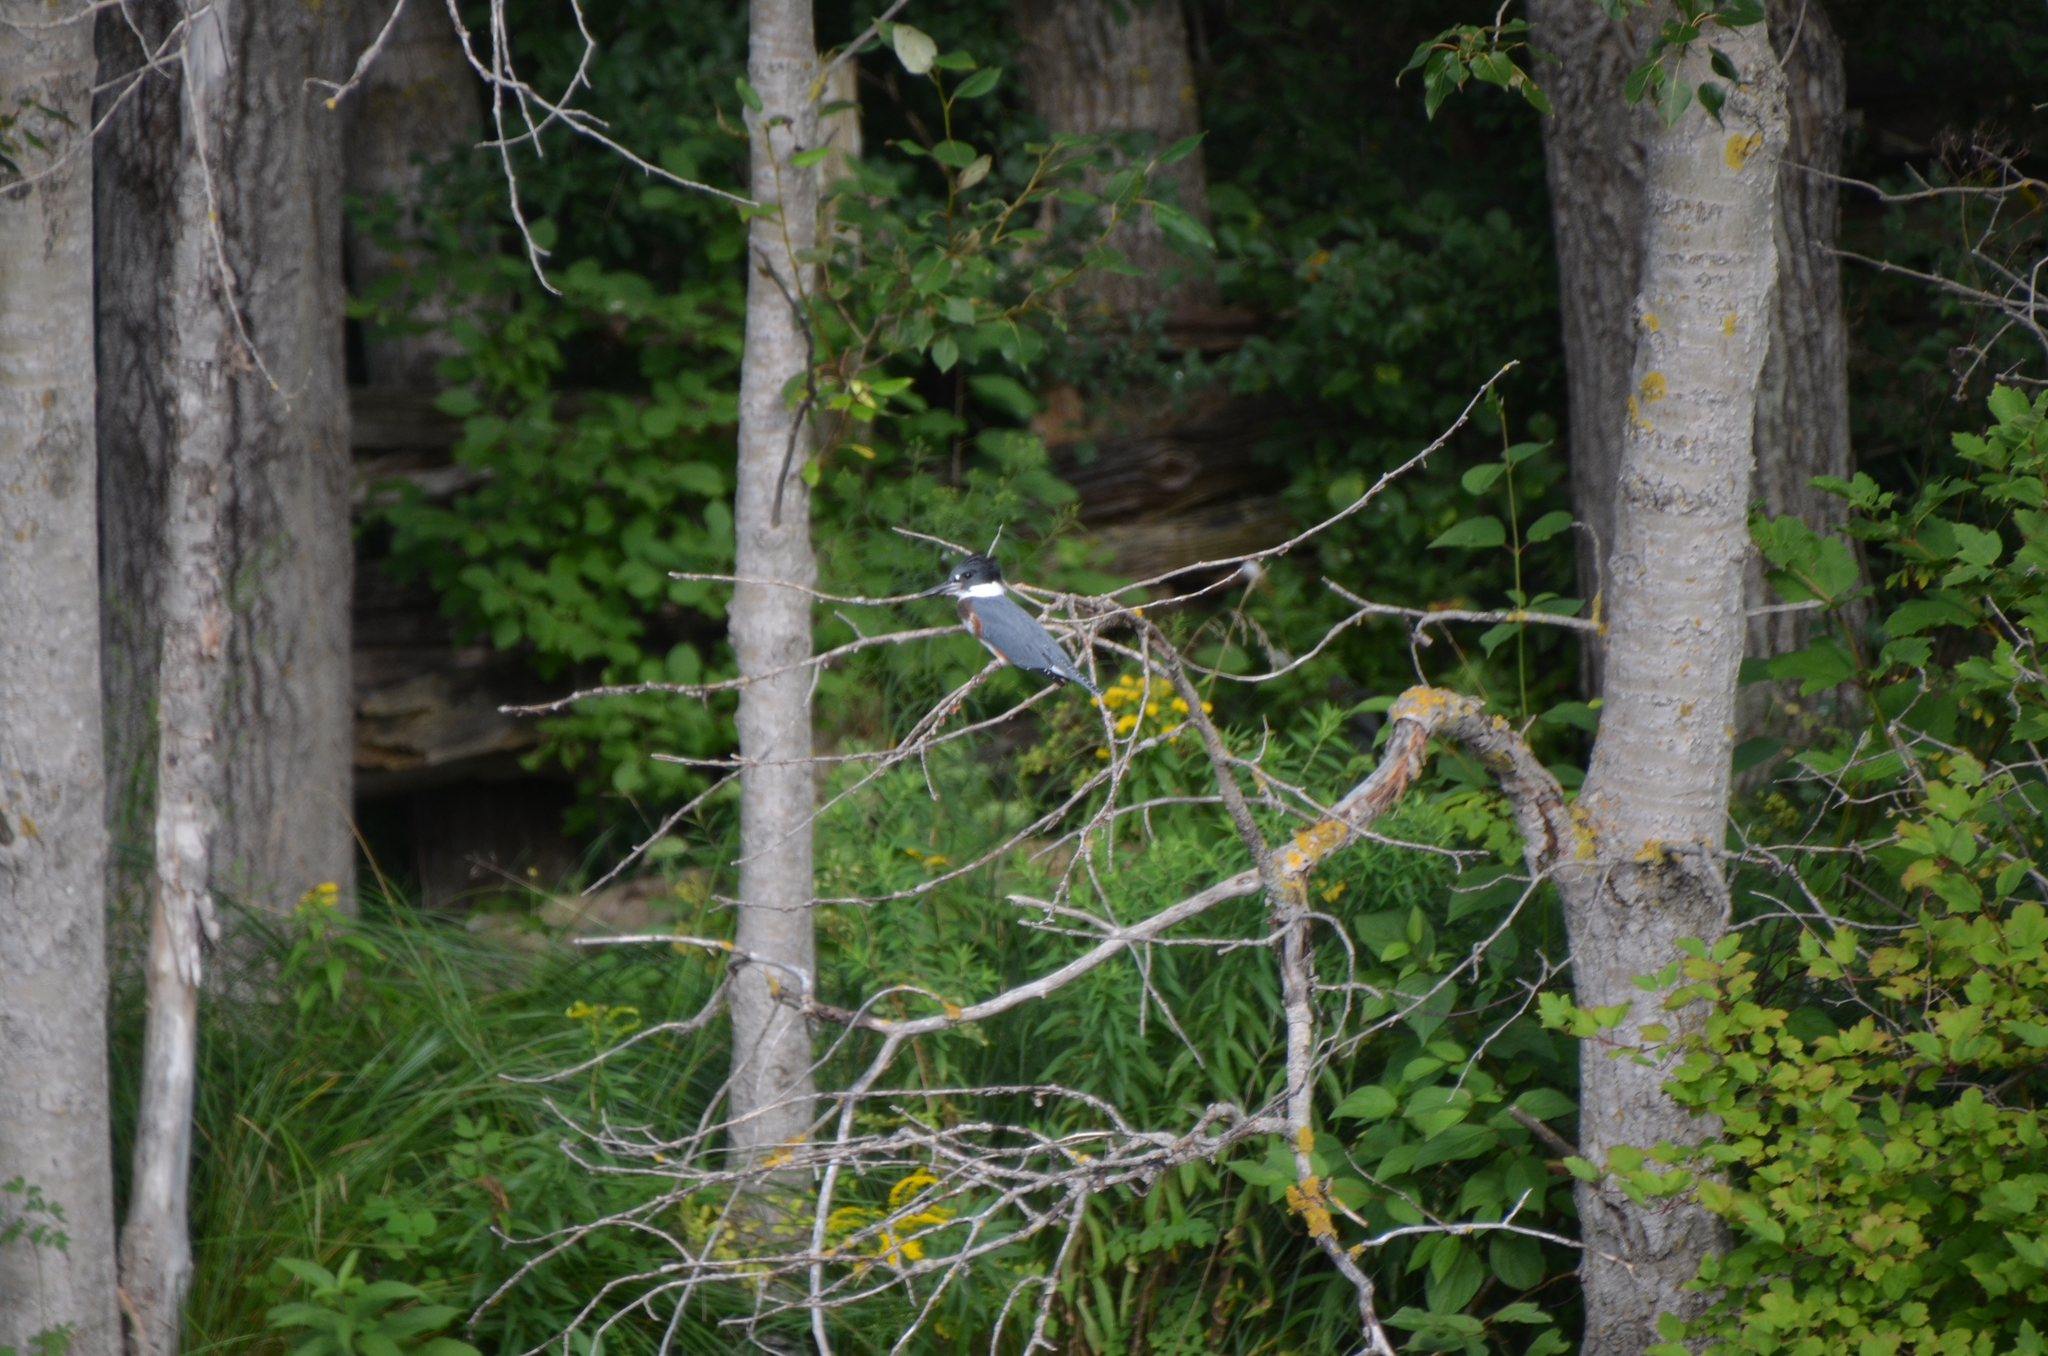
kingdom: Animalia
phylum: Chordata
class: Aves
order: Coraciiformes
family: Alcedinidae
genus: Megaceryle
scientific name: Megaceryle alcyon
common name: Belted kingfisher
